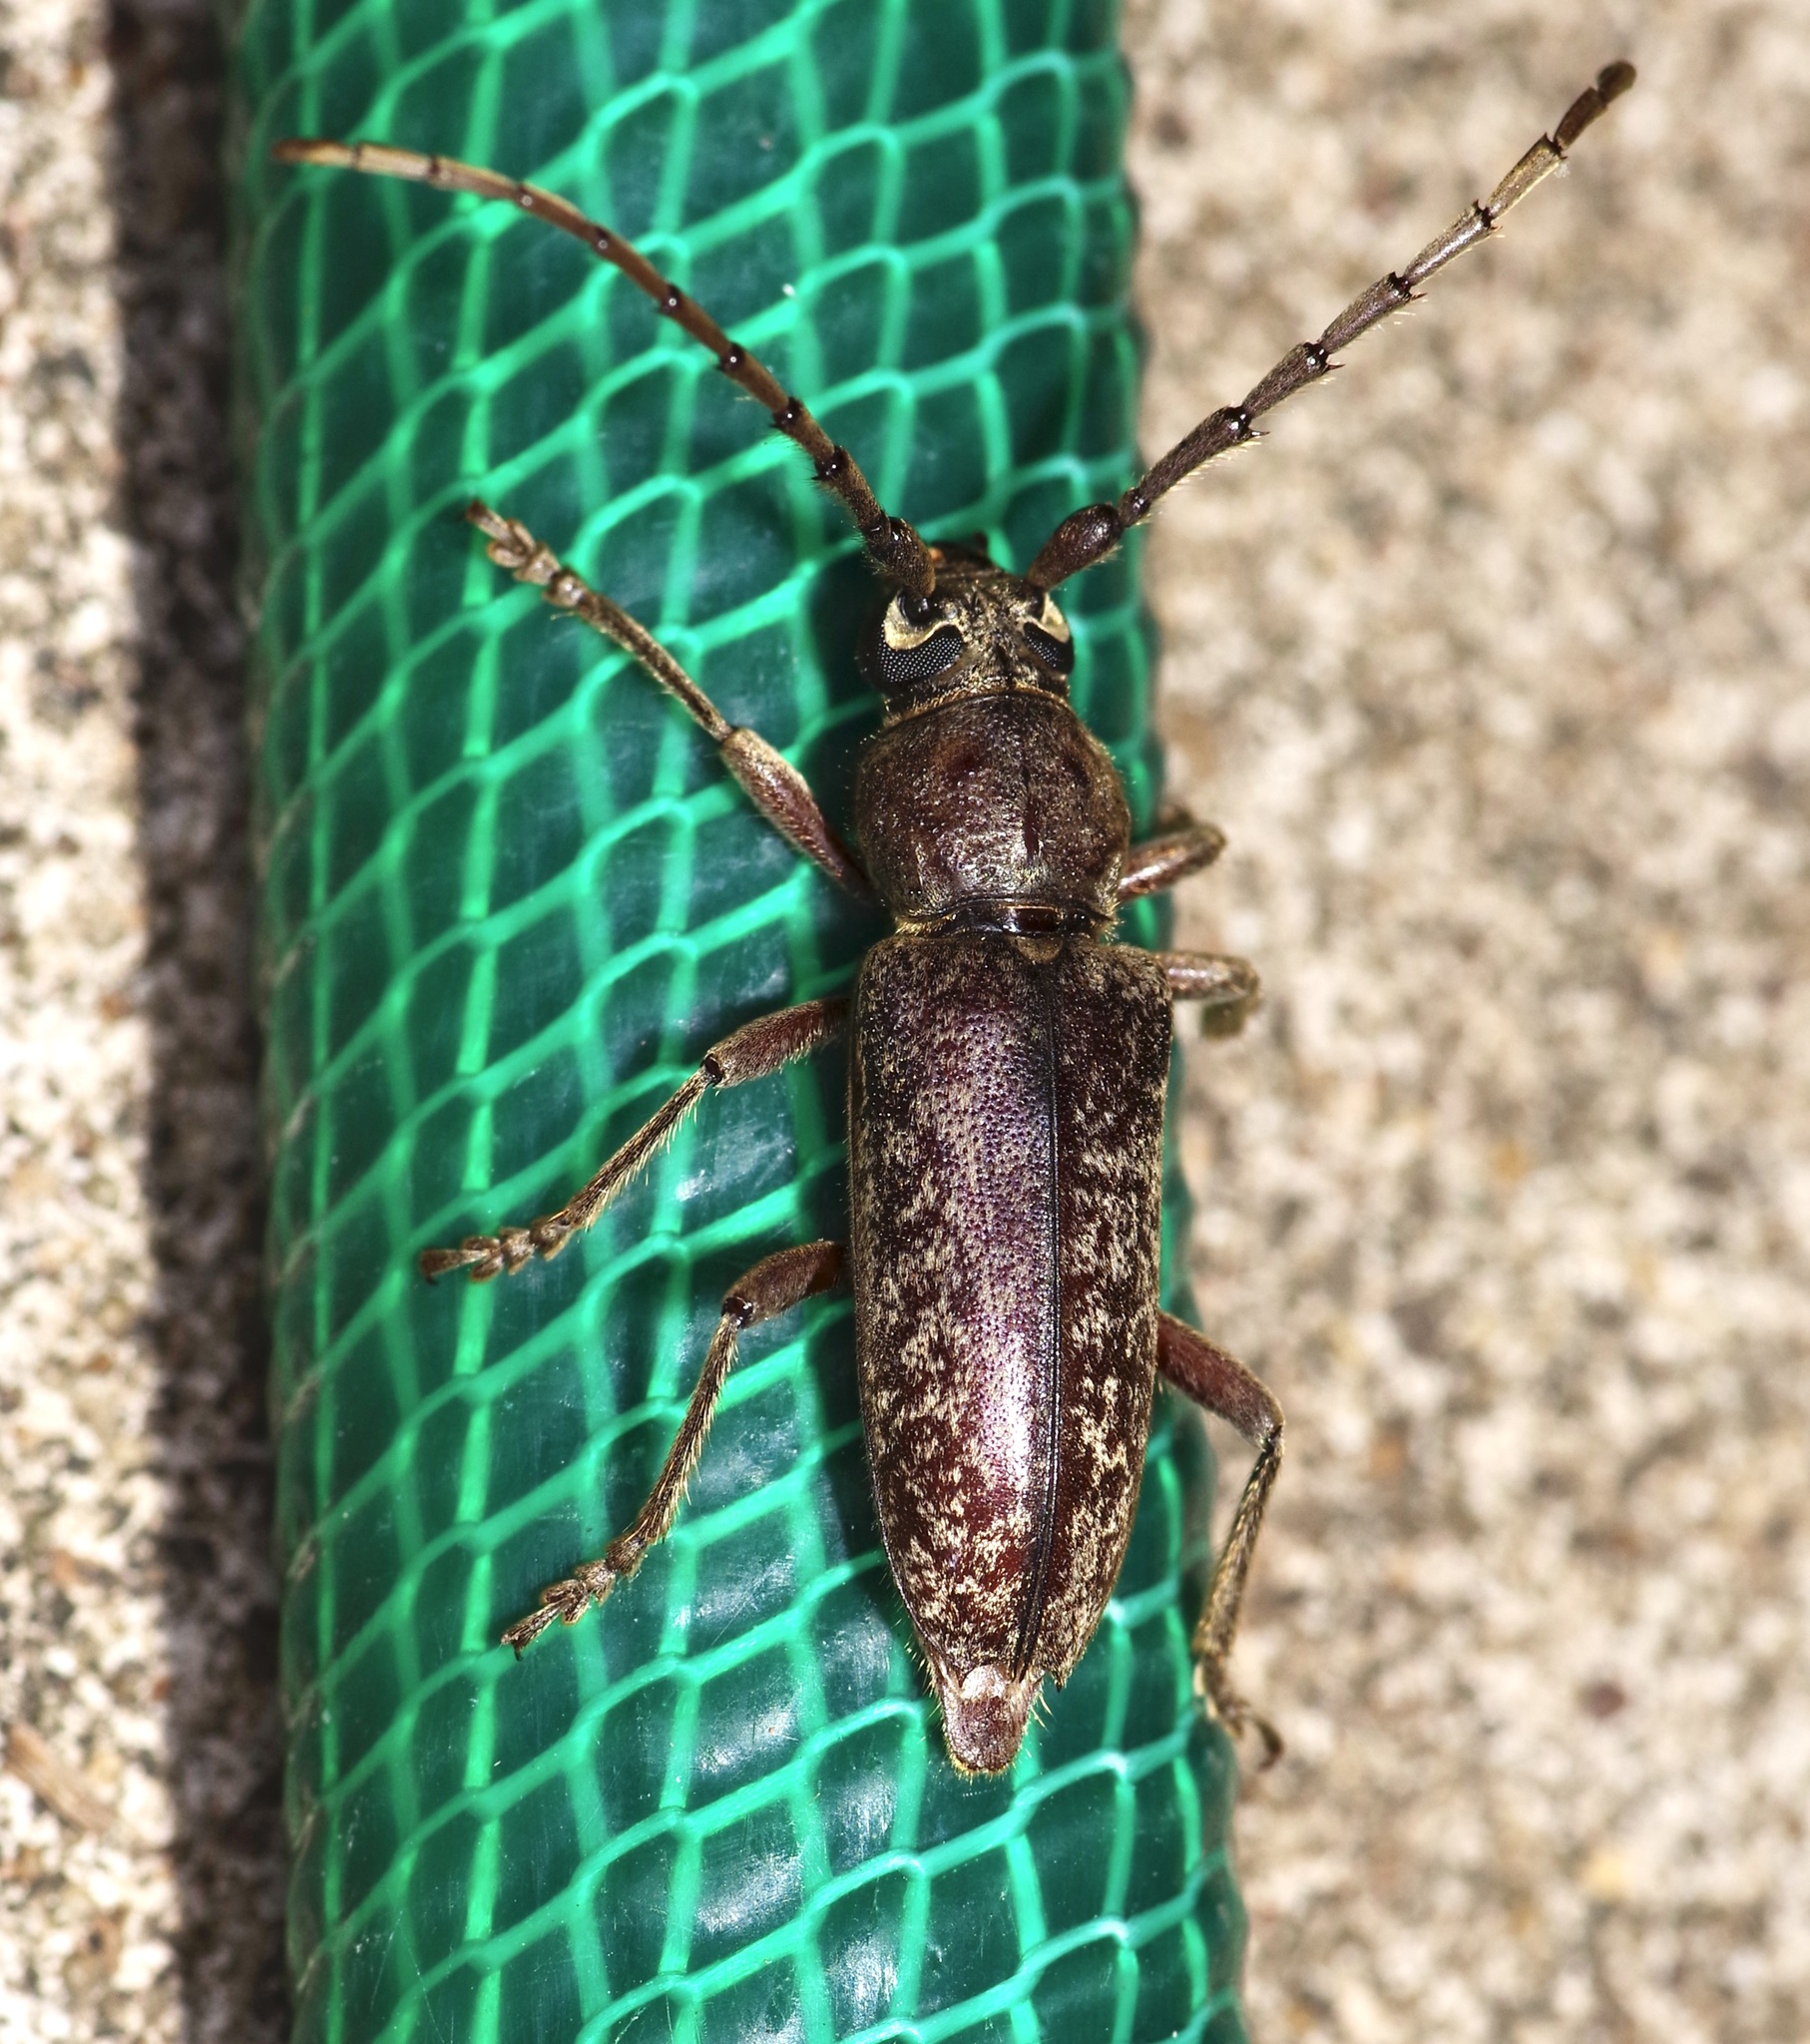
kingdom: Animalia
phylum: Arthropoda
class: Insecta
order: Coleoptera
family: Cerambycidae
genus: Enaphalodes
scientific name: Enaphalodes atomarius
